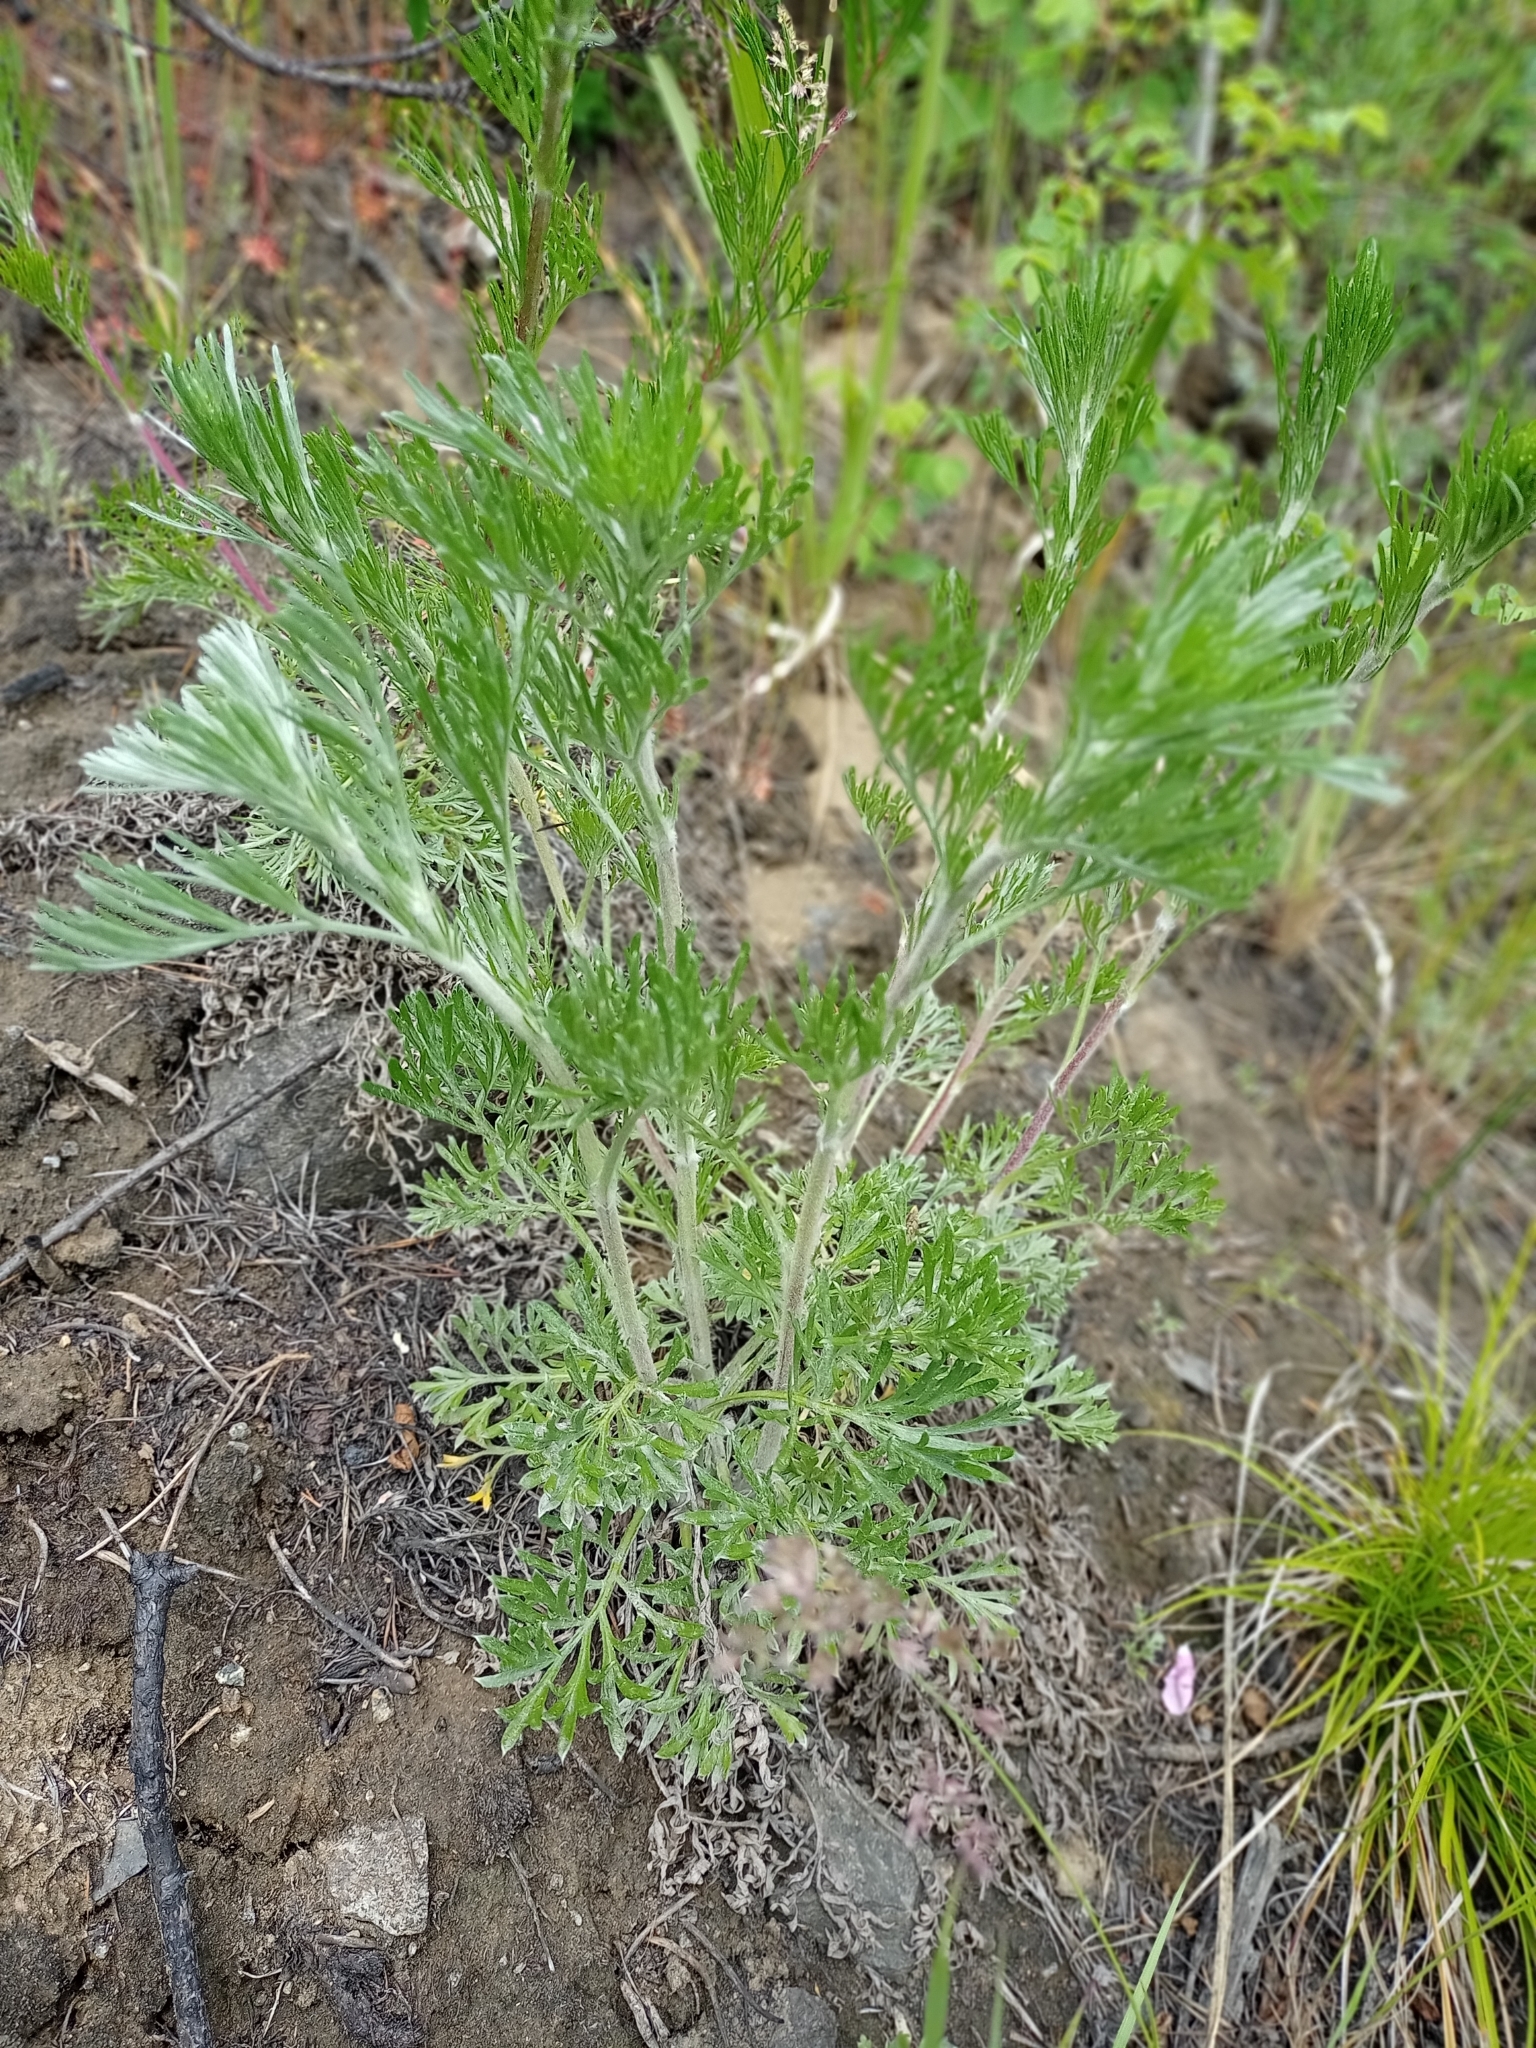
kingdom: Plantae
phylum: Tracheophyta
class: Magnoliopsida
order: Asterales
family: Asteraceae
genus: Artemisia
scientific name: Artemisia pubescens
